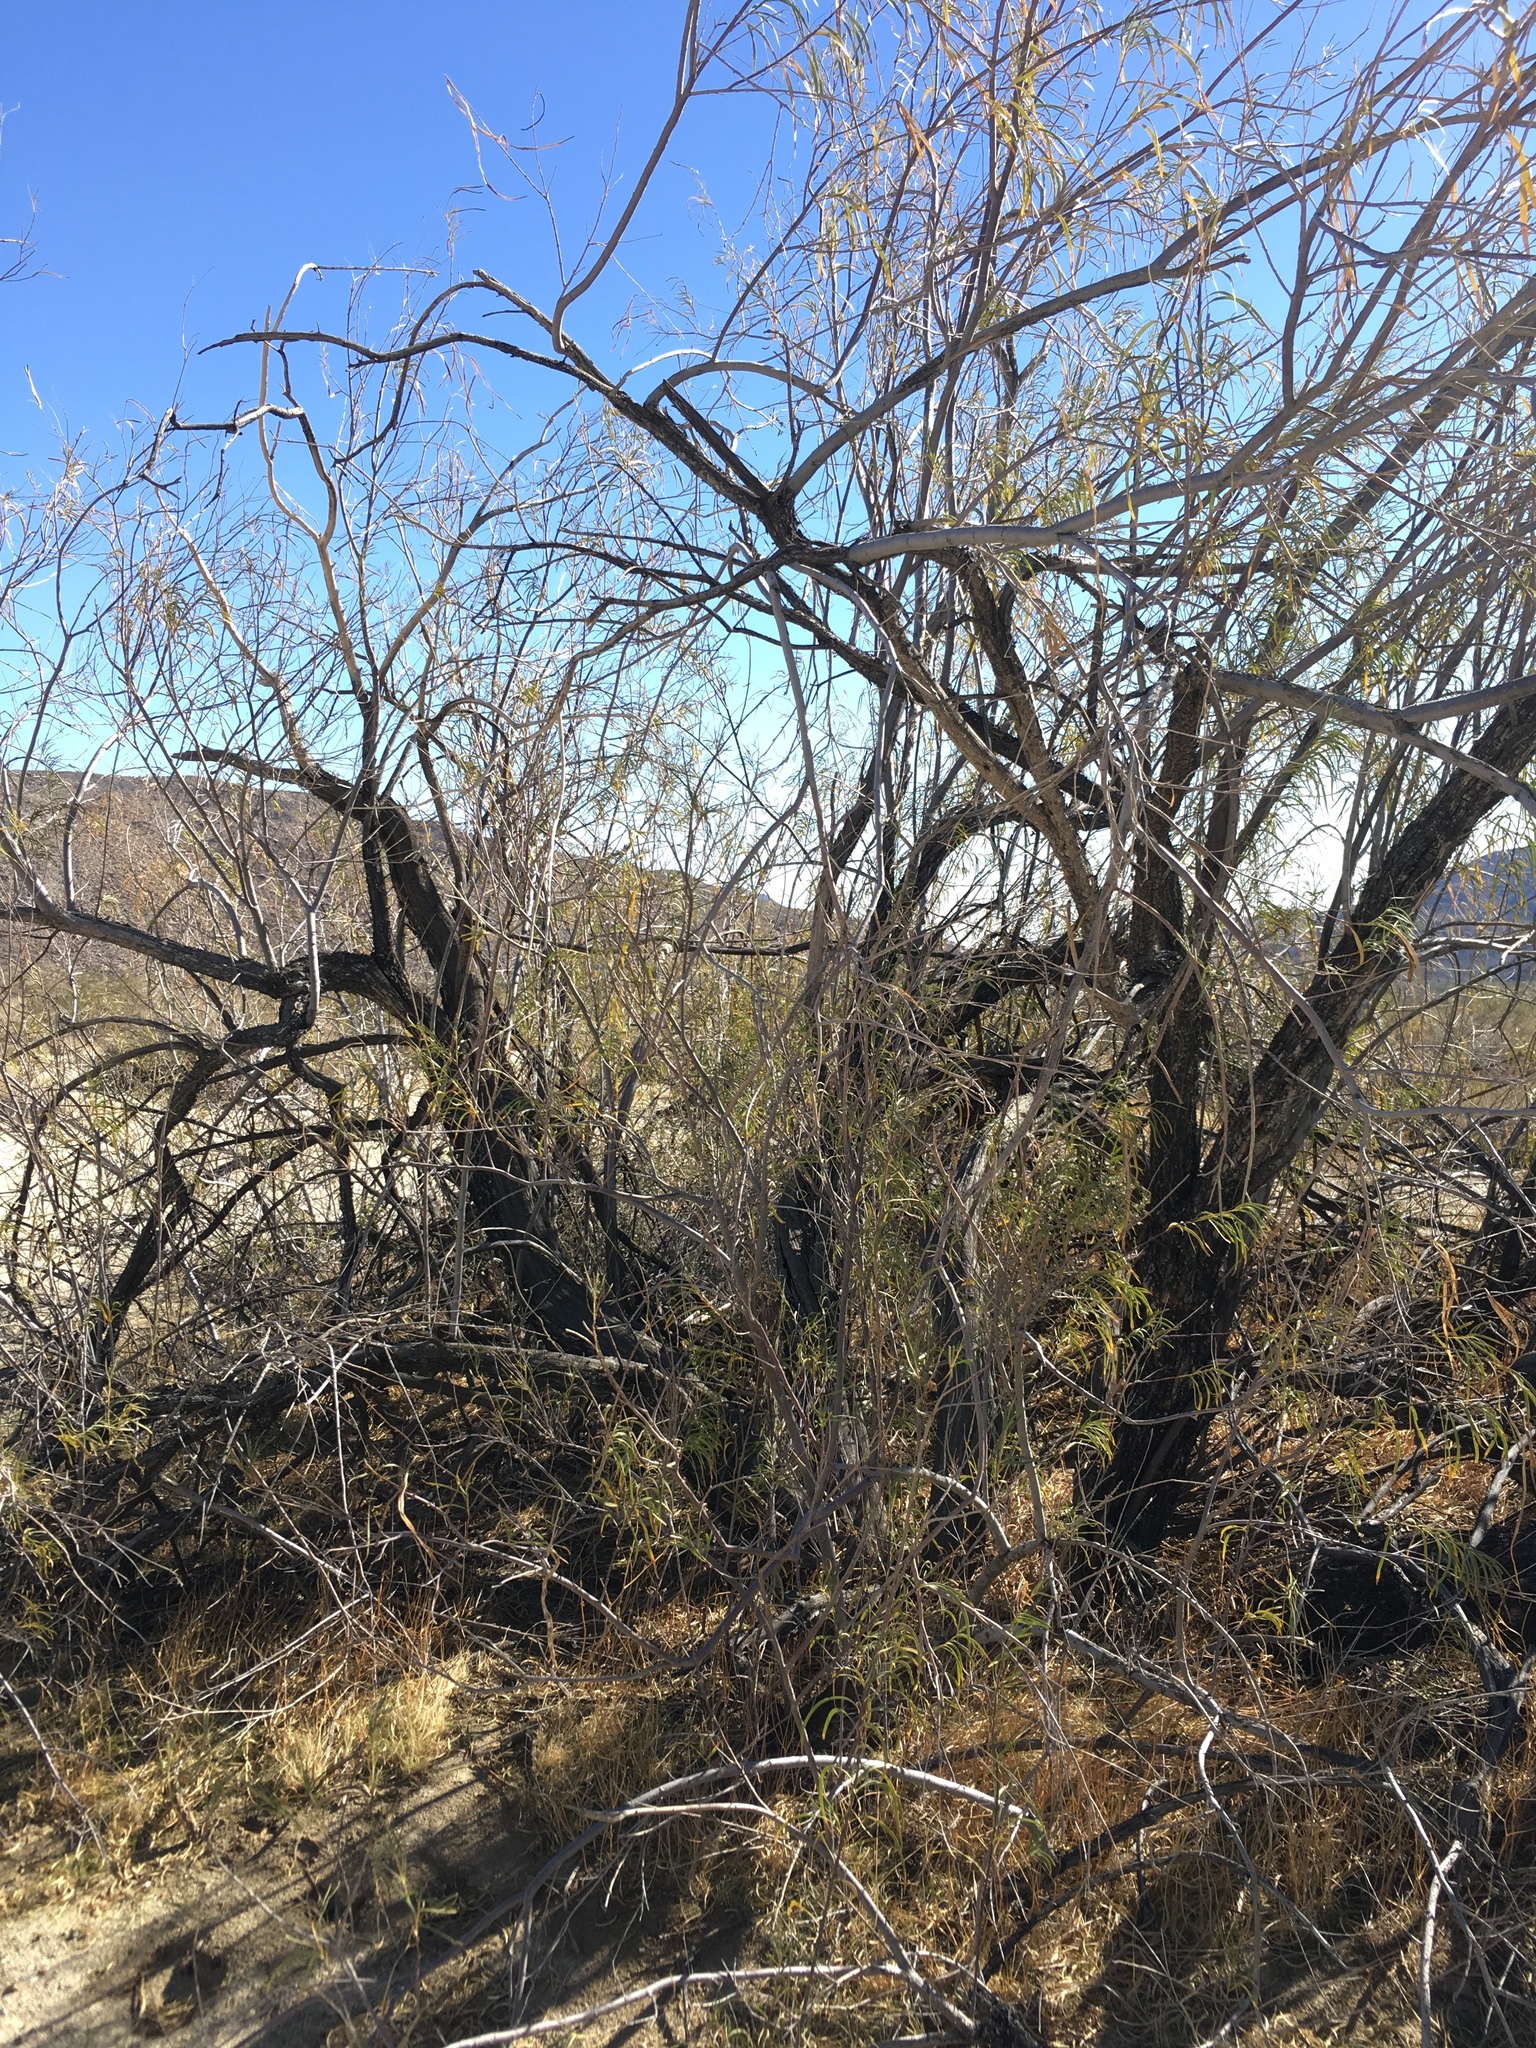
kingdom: Plantae
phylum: Tracheophyta
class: Magnoliopsida
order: Lamiales
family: Bignoniaceae
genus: Chilopsis
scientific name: Chilopsis linearis
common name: Desert-willow
